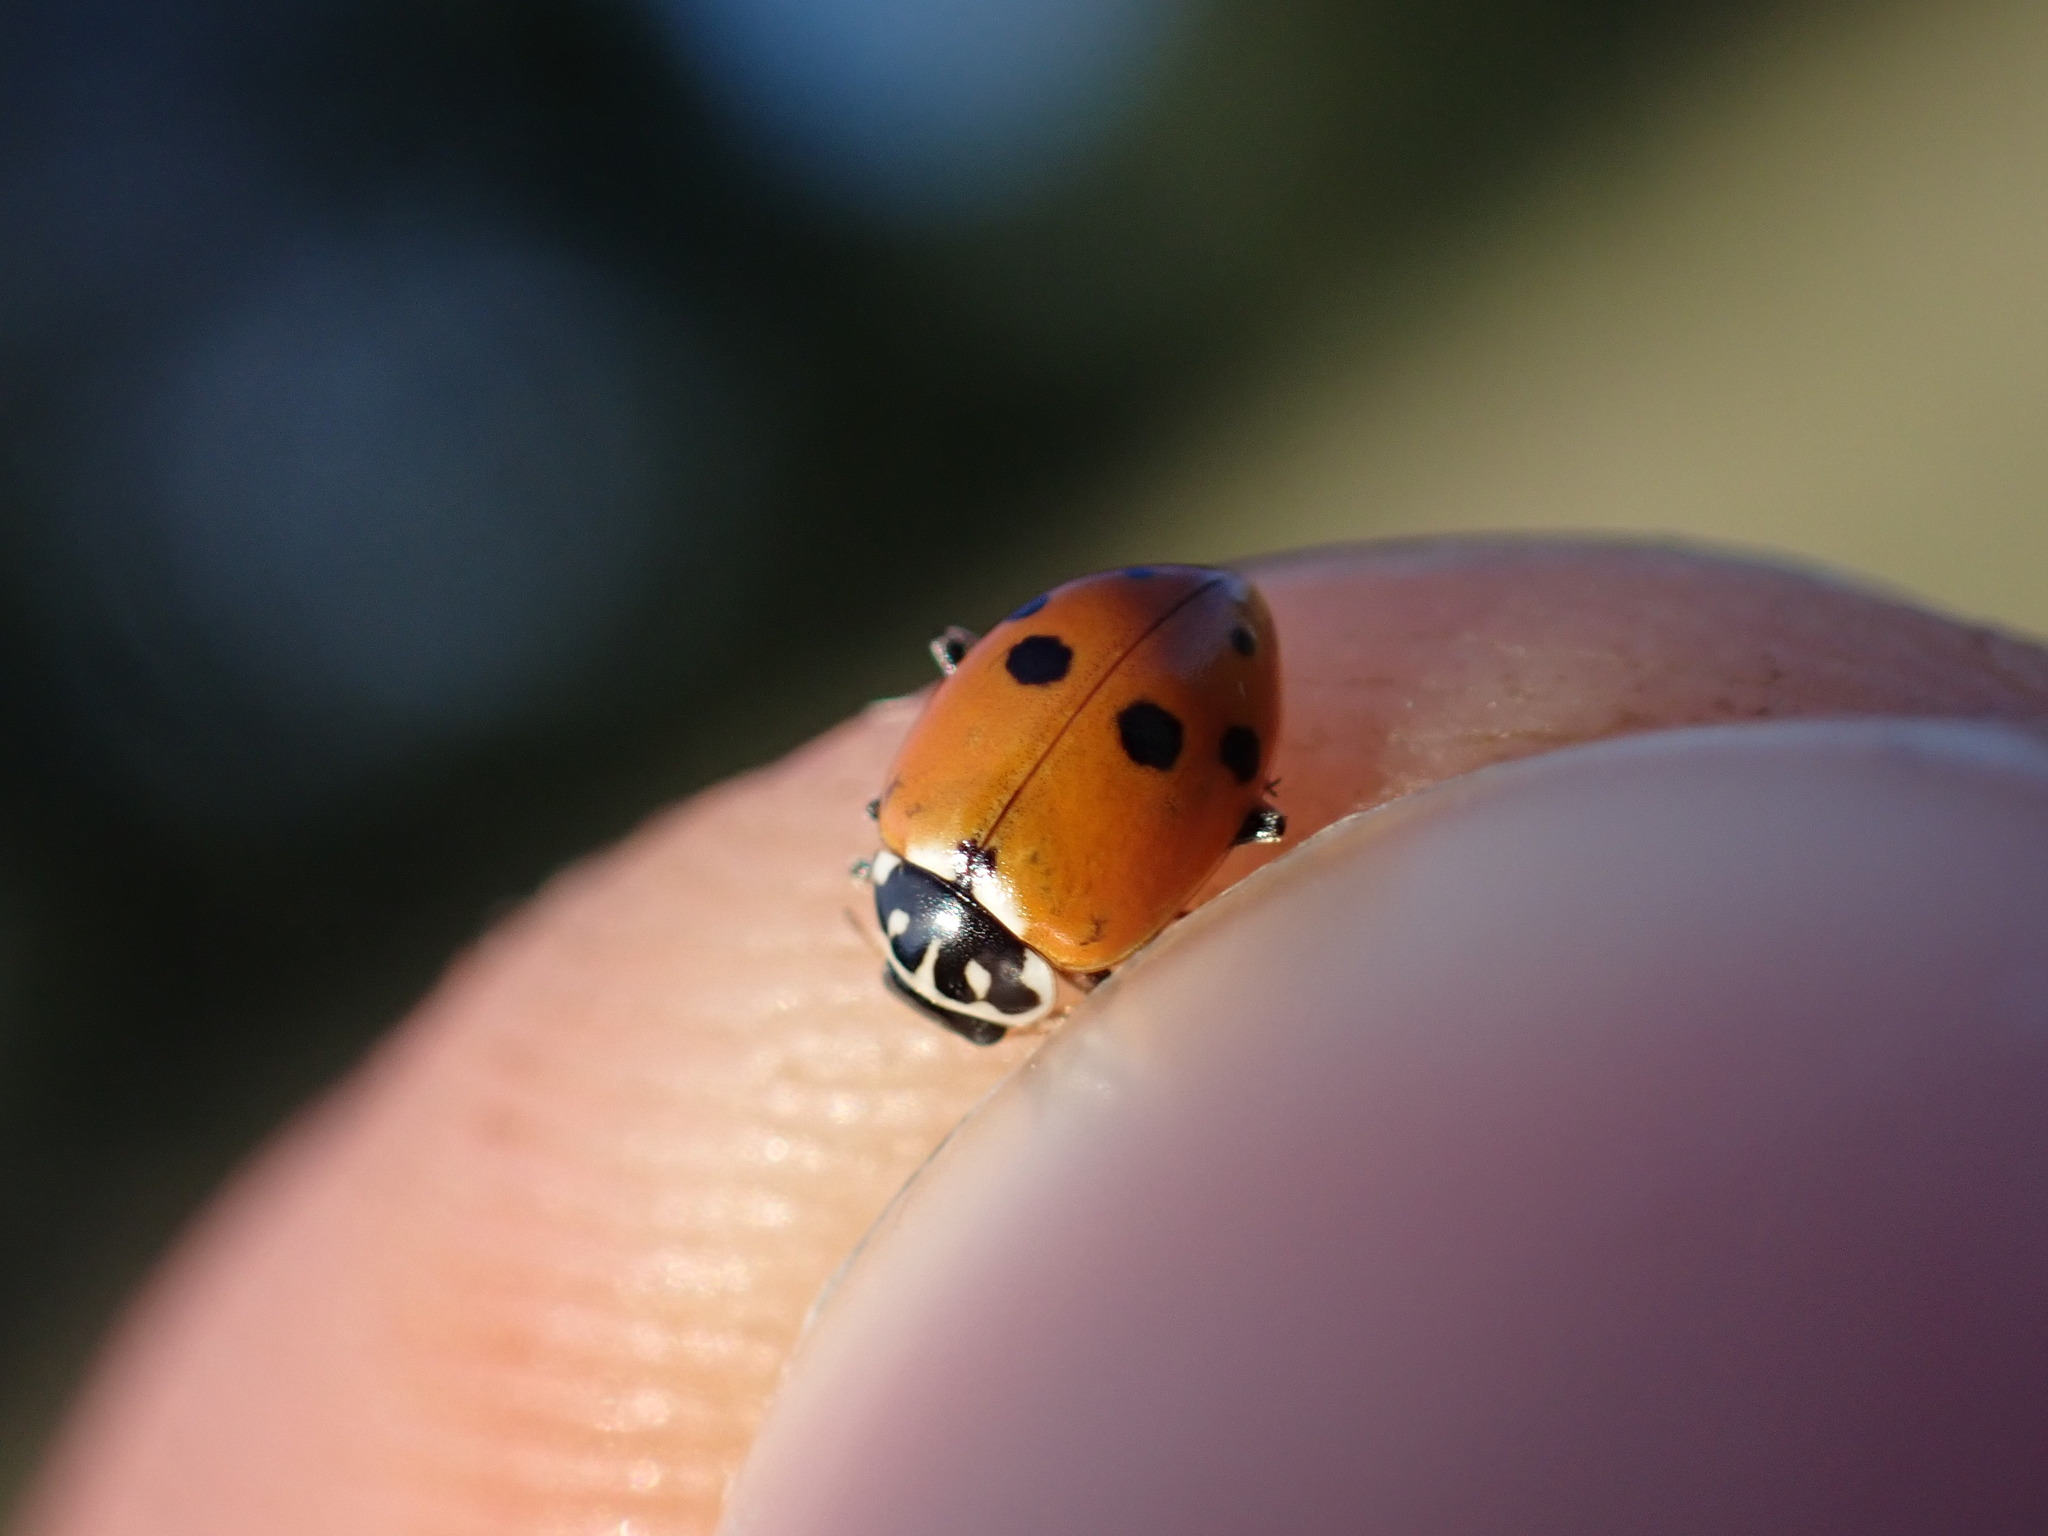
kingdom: Animalia
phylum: Arthropoda
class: Insecta
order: Coleoptera
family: Coccinellidae
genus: Hippodamia
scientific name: Hippodamia variegata
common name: Ladybird beetle
